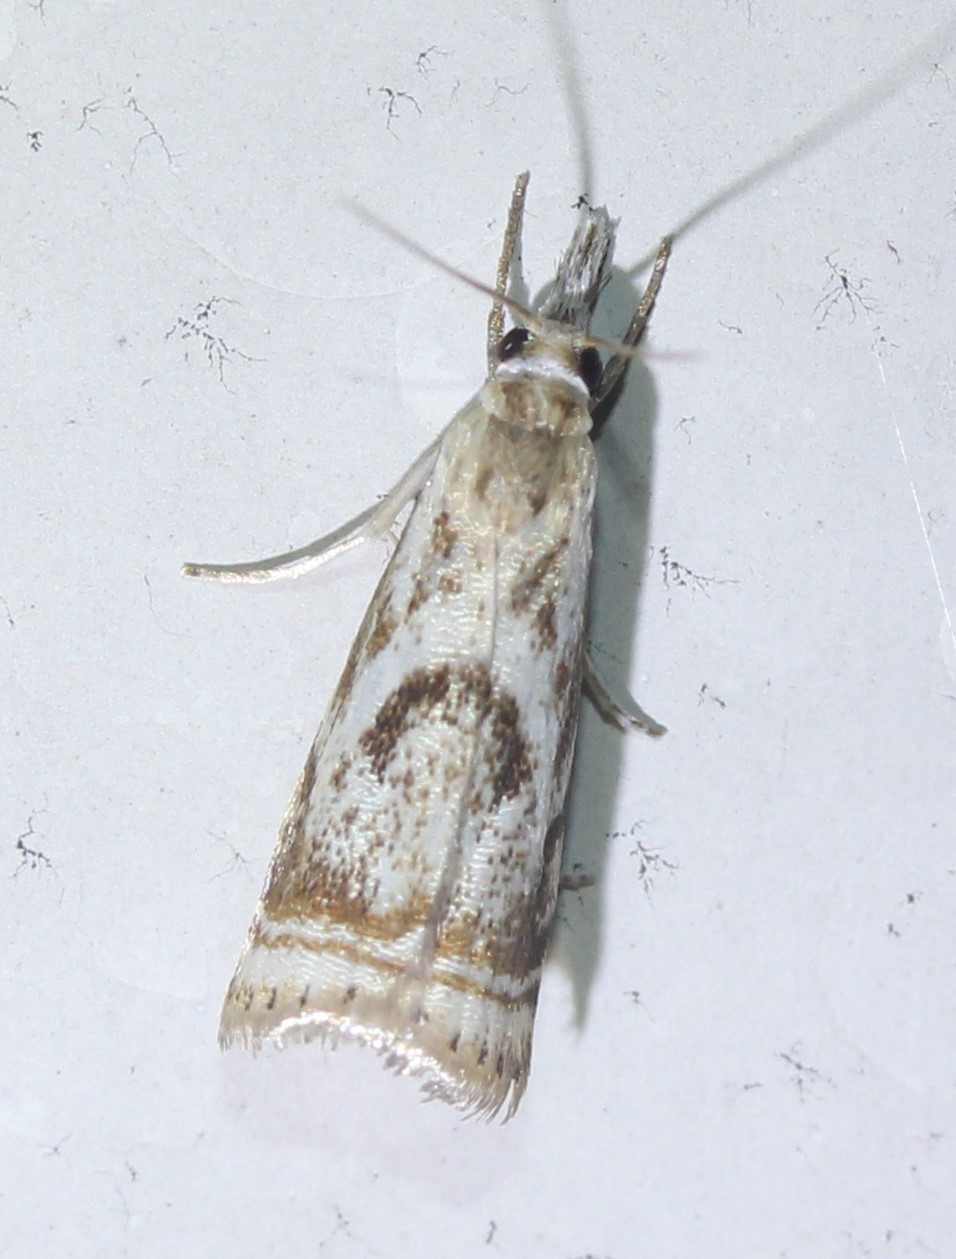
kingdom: Animalia
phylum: Arthropoda
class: Insecta
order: Lepidoptera
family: Crambidae
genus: Microcrambus
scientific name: Microcrambus elegans
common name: Elegant grass-veneer
